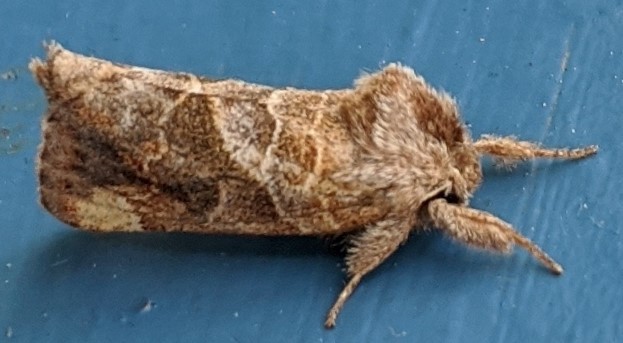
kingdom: Animalia
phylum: Arthropoda
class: Insecta
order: Lepidoptera
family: Notodontidae
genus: Clostera
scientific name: Clostera strigosa
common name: Striped chocolate-tip moth
